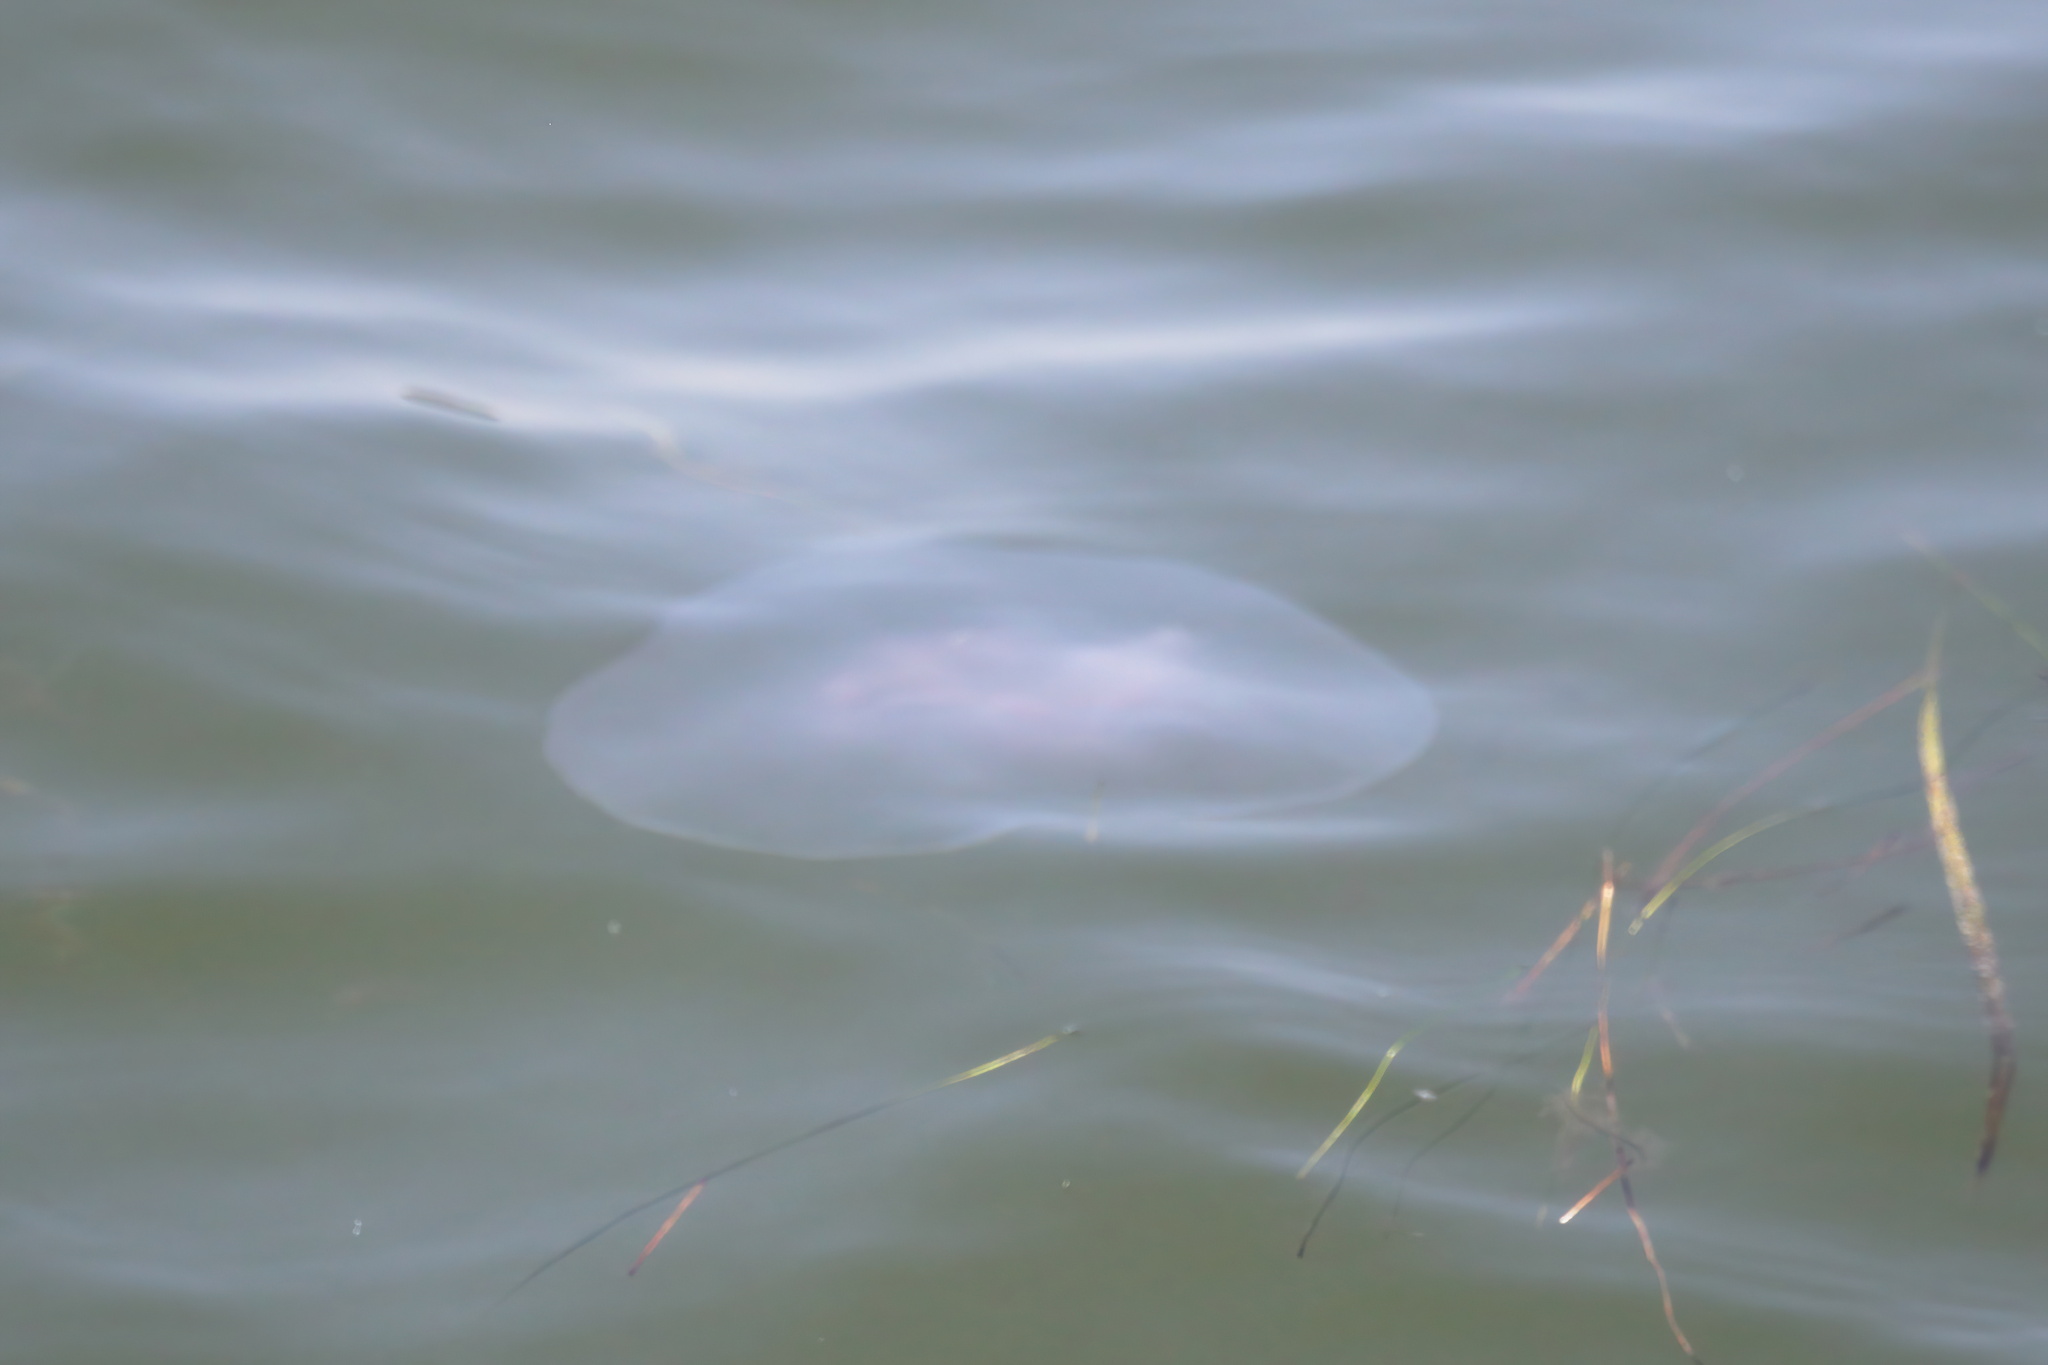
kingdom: Animalia
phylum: Cnidaria
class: Scyphozoa
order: Semaeostomeae
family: Ulmaridae
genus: Aurelia
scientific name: Aurelia marginalis
